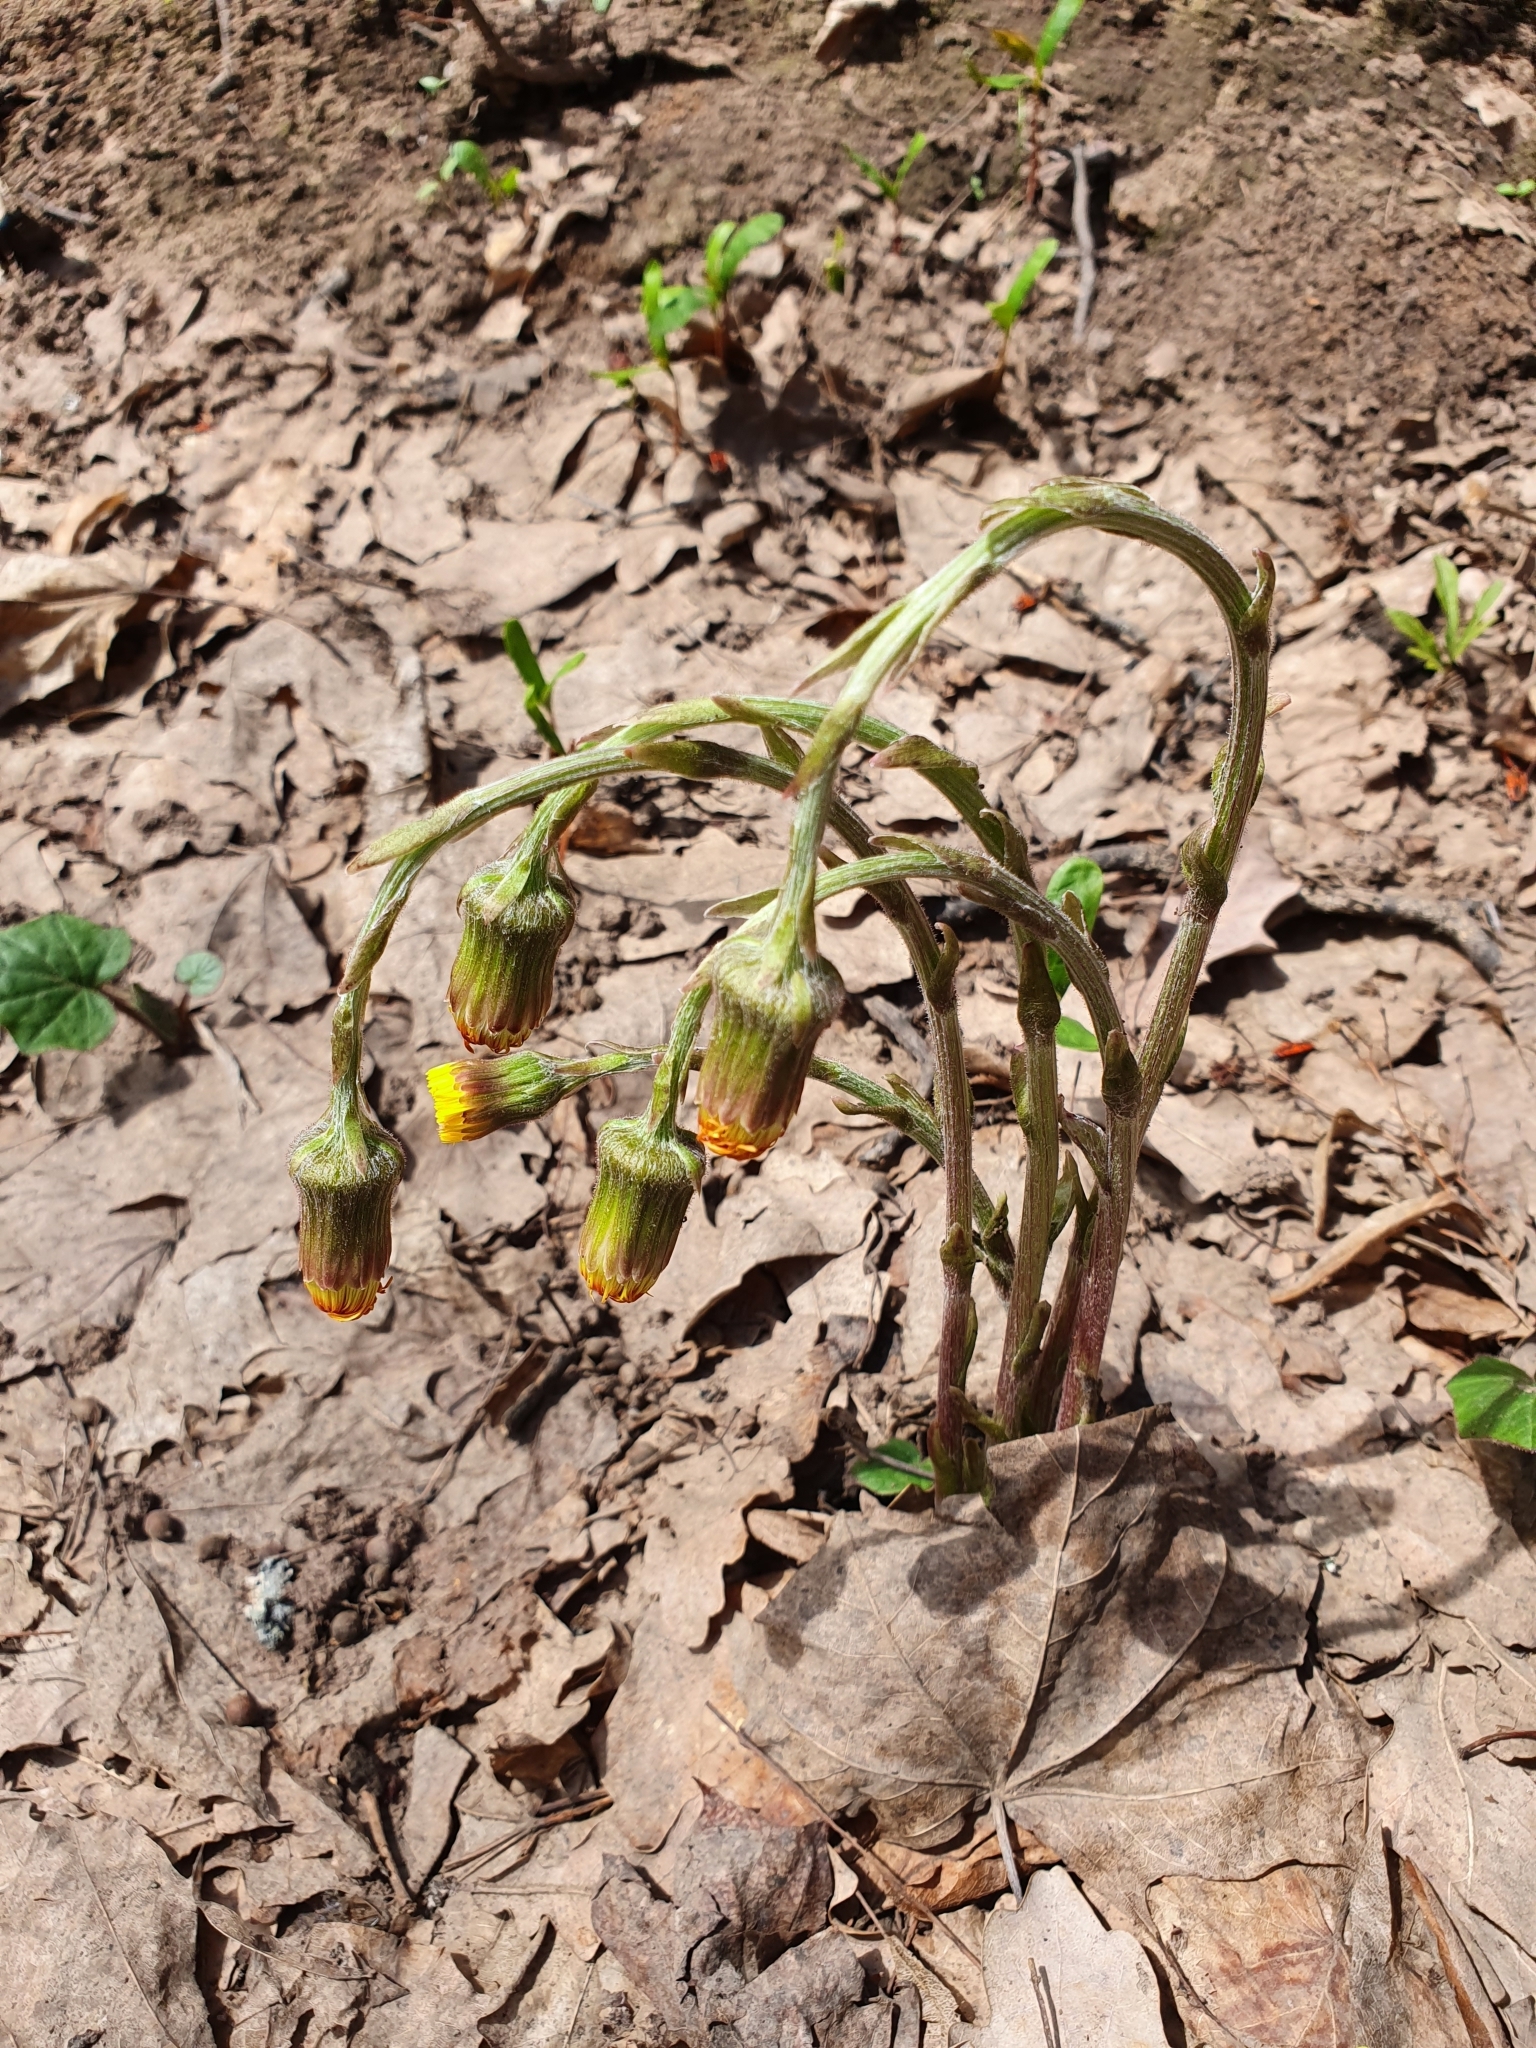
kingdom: Plantae
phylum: Tracheophyta
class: Magnoliopsida
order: Asterales
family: Asteraceae
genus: Tussilago
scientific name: Tussilago farfara
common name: Coltsfoot
